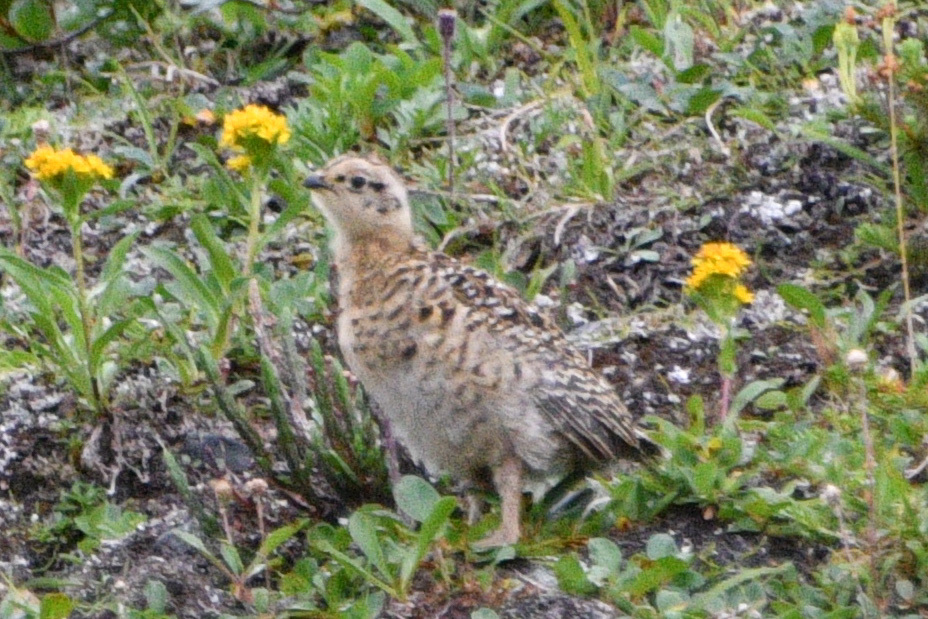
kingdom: Animalia
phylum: Chordata
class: Aves
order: Galliformes
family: Phasianidae
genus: Lagopus
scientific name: Lagopus lagopus
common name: Willow ptarmigan
